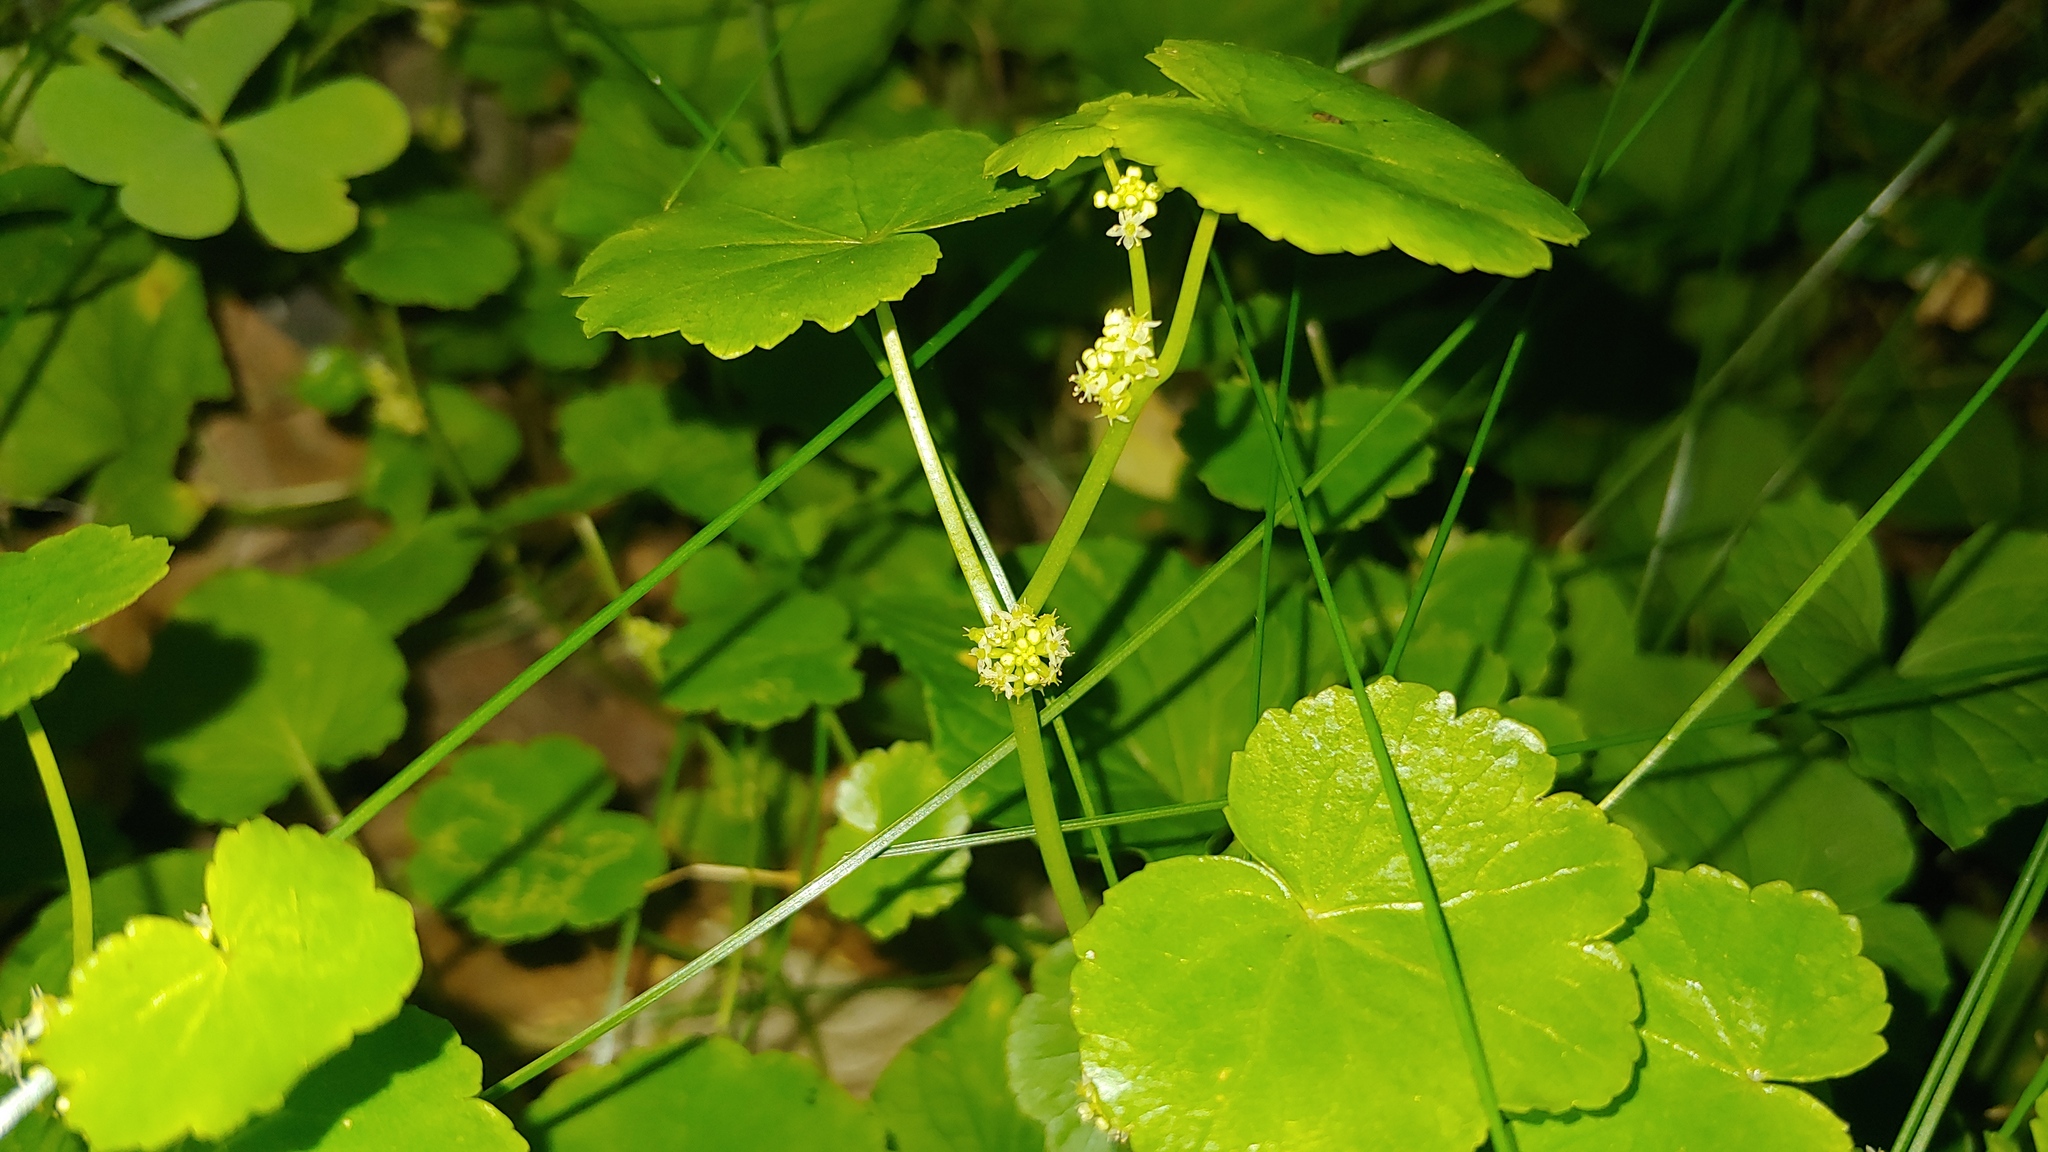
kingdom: Plantae
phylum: Tracheophyta
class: Magnoliopsida
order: Apiales
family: Araliaceae
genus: Hydrocotyle
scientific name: Hydrocotyle americana
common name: American water-pennywort
